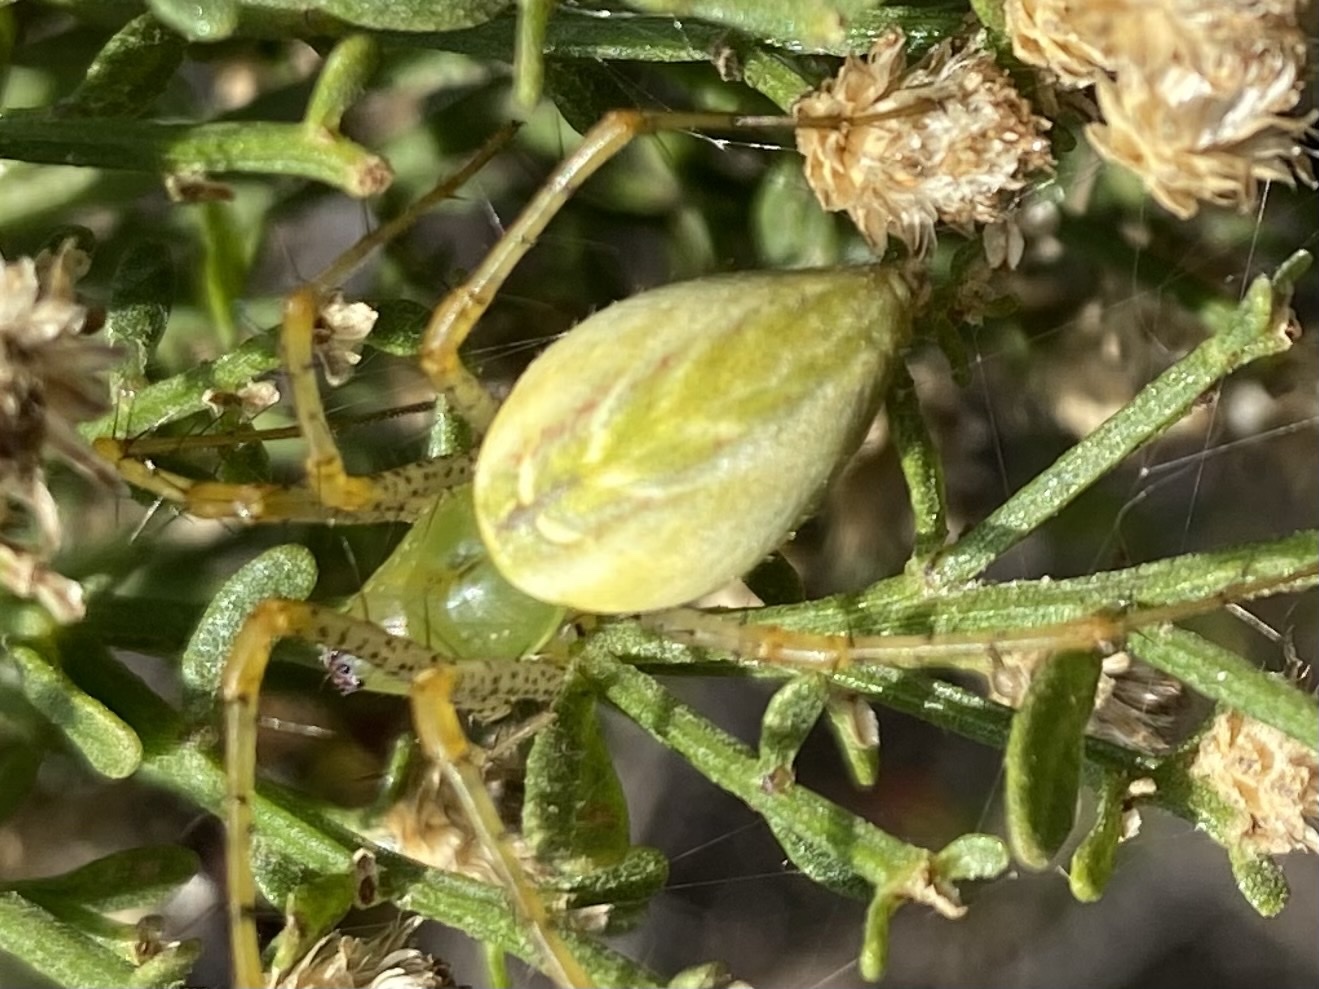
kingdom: Animalia
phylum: Arthropoda
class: Arachnida
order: Araneae
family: Oxyopidae
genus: Peucetia
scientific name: Peucetia viridans
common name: Lynx spiders
